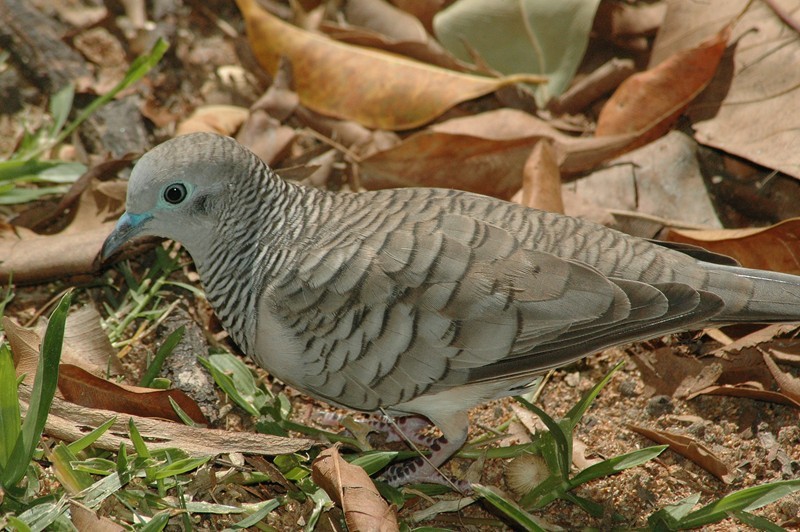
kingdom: Animalia
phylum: Chordata
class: Aves
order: Columbiformes
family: Columbidae
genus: Geopelia
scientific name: Geopelia placida
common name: Peaceful dove
